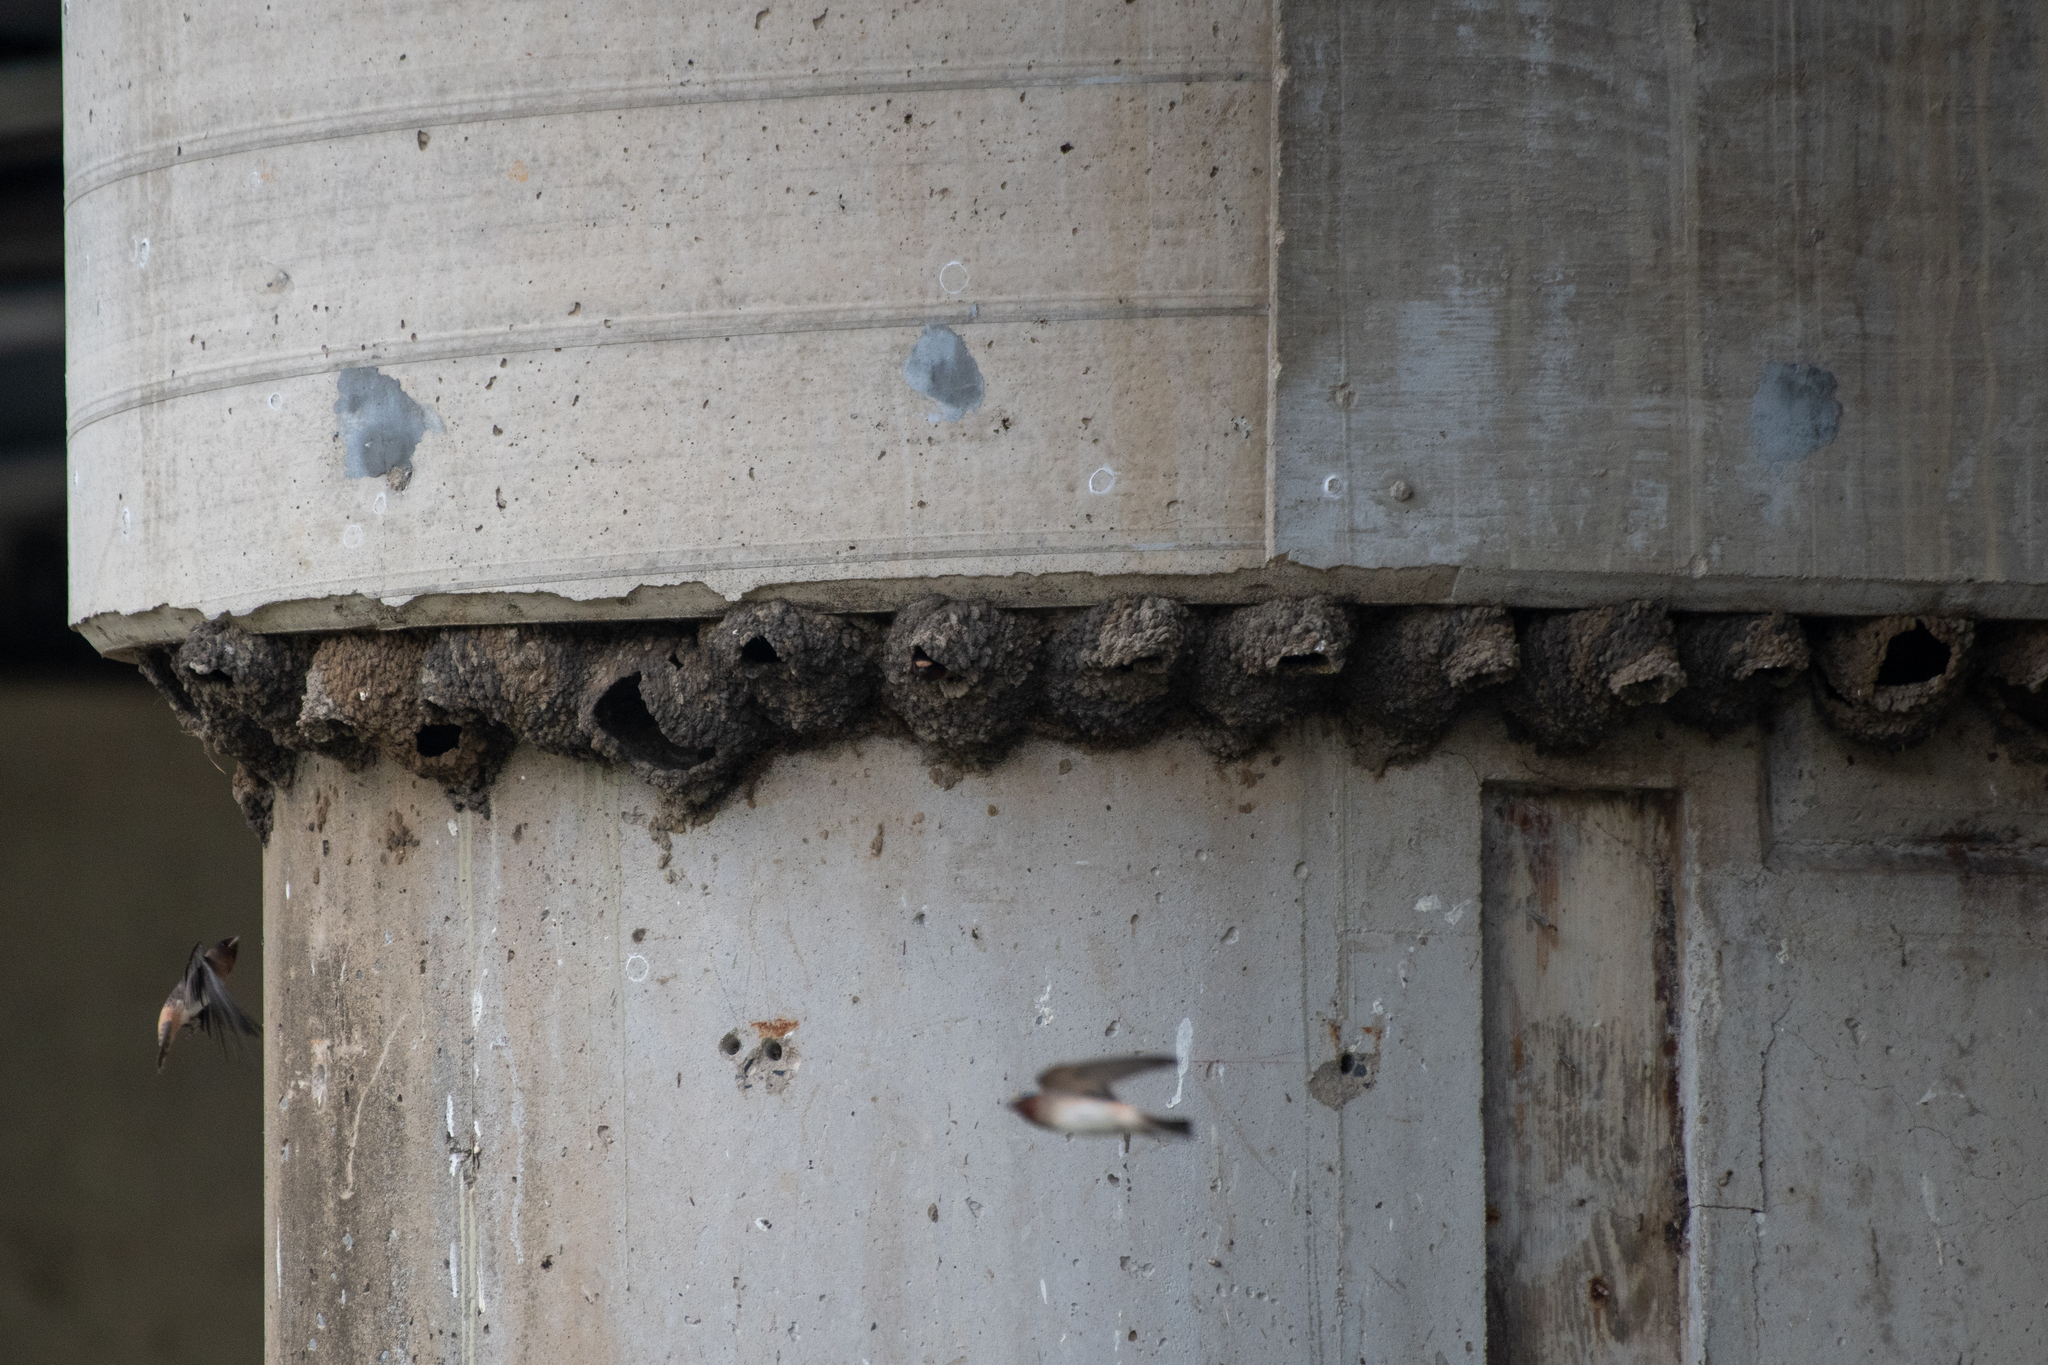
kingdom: Animalia
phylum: Chordata
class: Aves
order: Passeriformes
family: Hirundinidae
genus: Petrochelidon
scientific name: Petrochelidon pyrrhonota
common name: American cliff swallow
